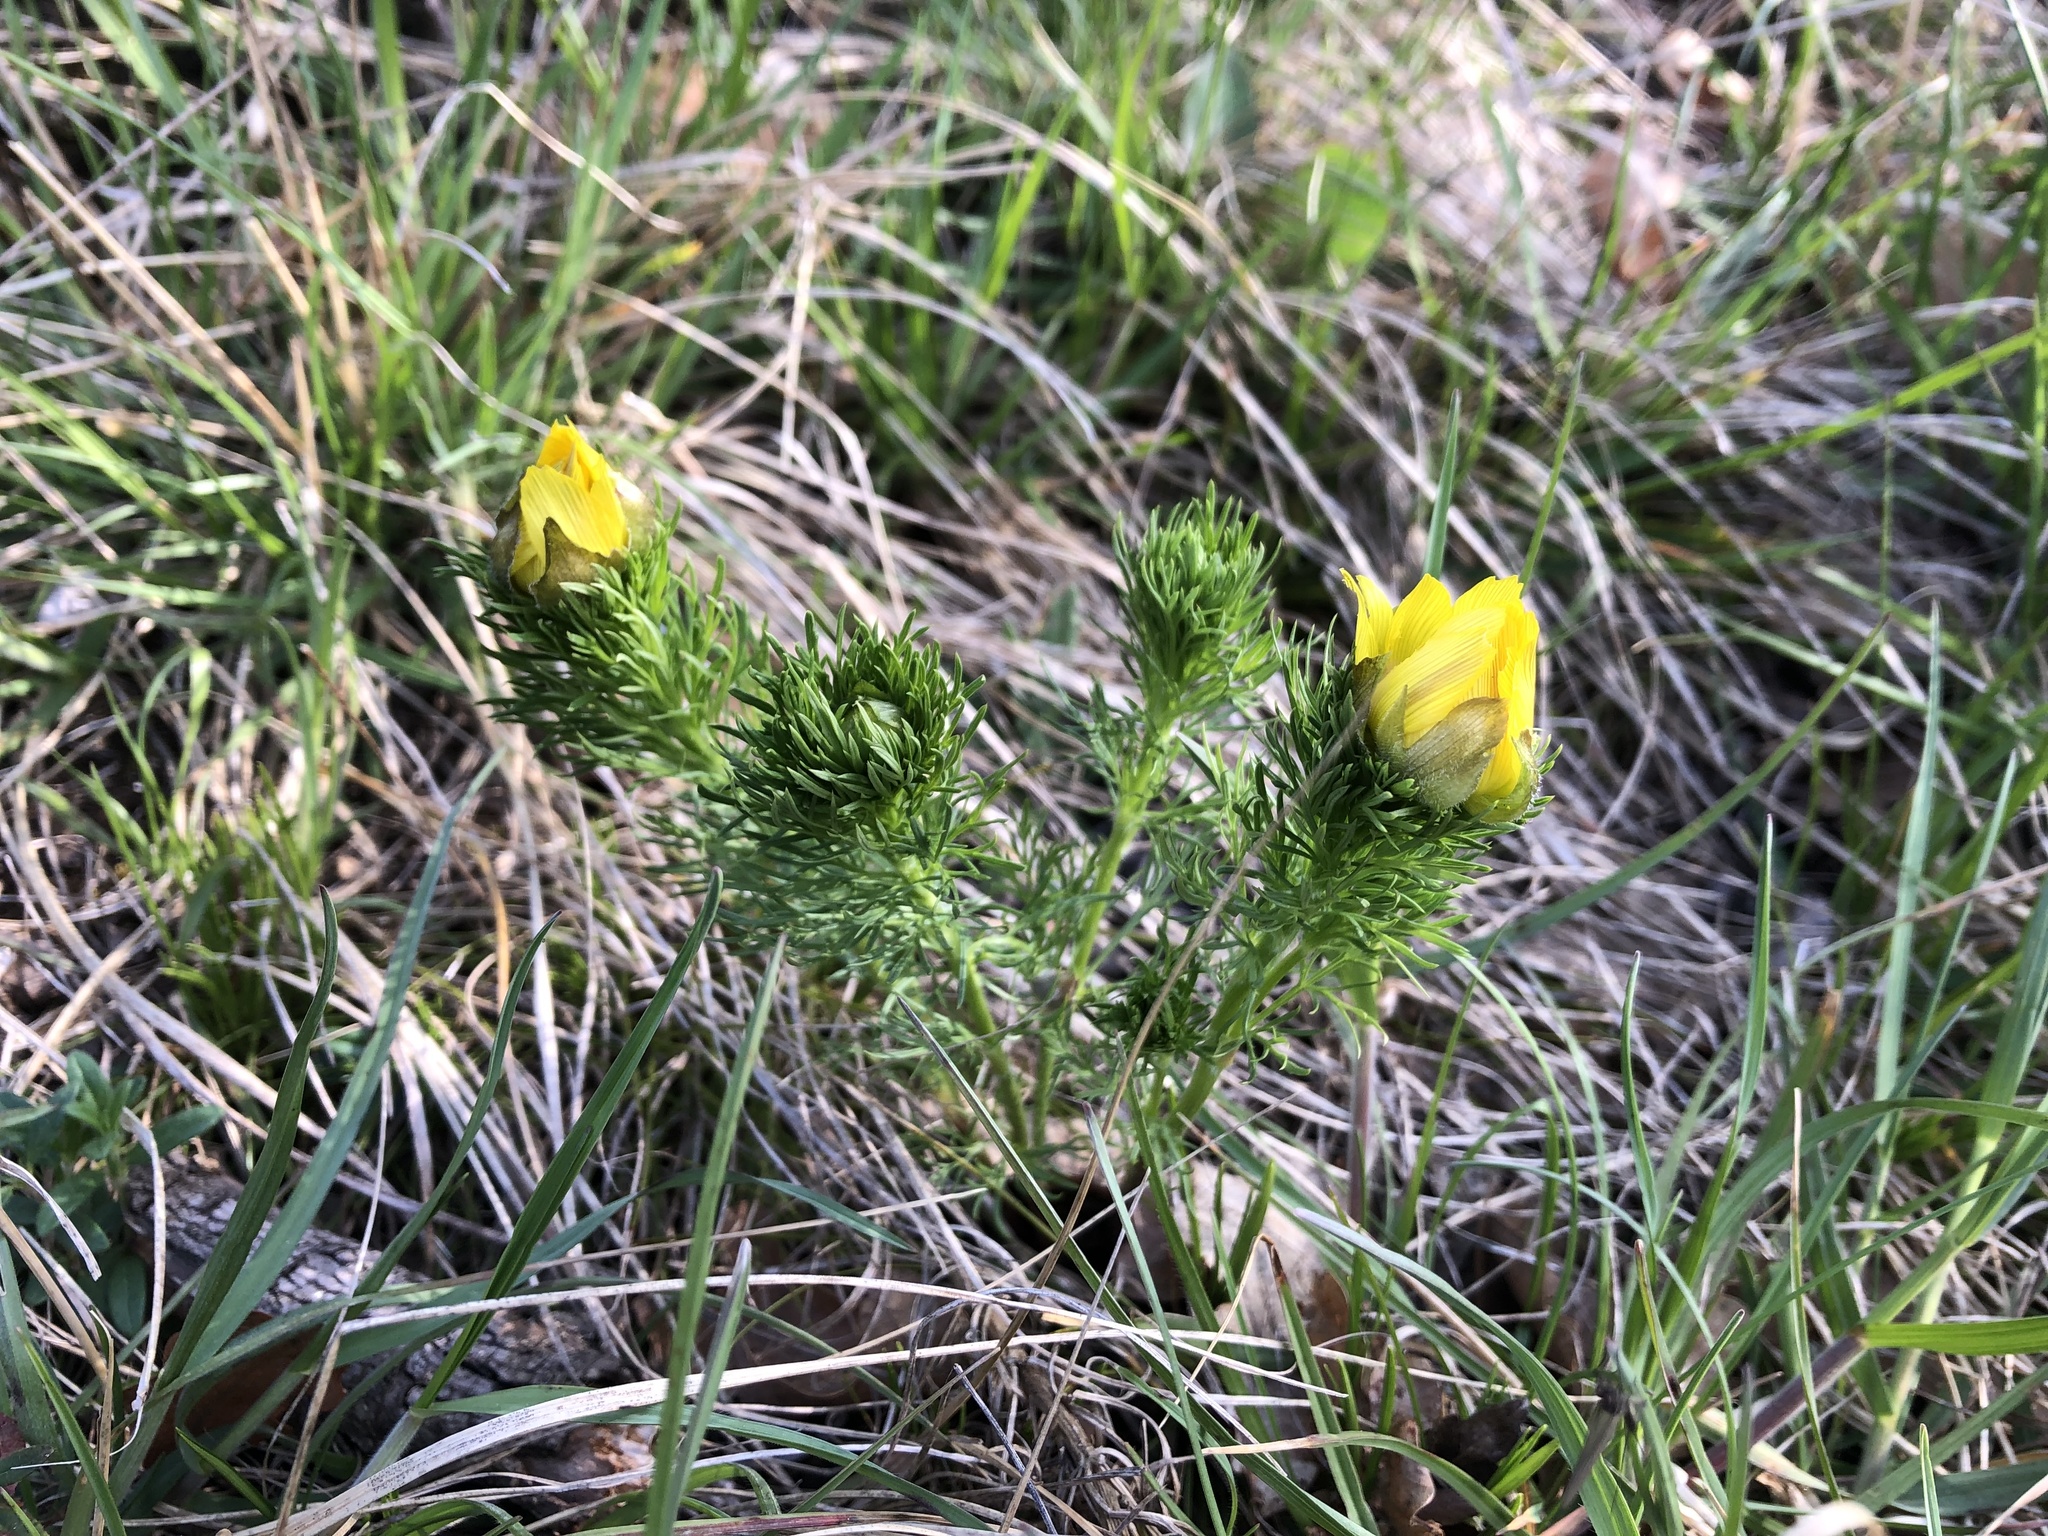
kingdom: Plantae
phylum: Tracheophyta
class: Magnoliopsida
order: Ranunculales
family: Ranunculaceae
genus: Adonis
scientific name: Adonis vernalis
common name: Yellow pheasants-eye
